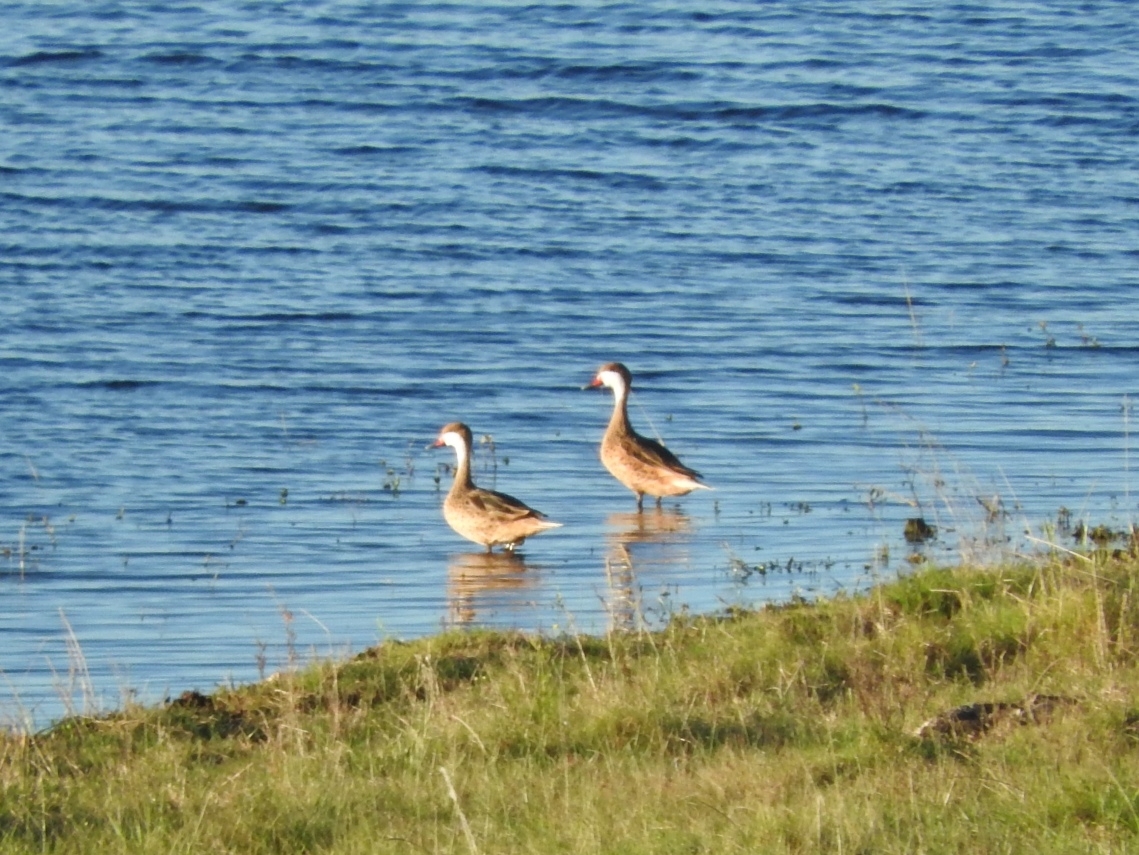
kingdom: Animalia
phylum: Chordata
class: Aves
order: Anseriformes
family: Anatidae
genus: Anas
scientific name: Anas bahamensis
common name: White-cheeked pintail
